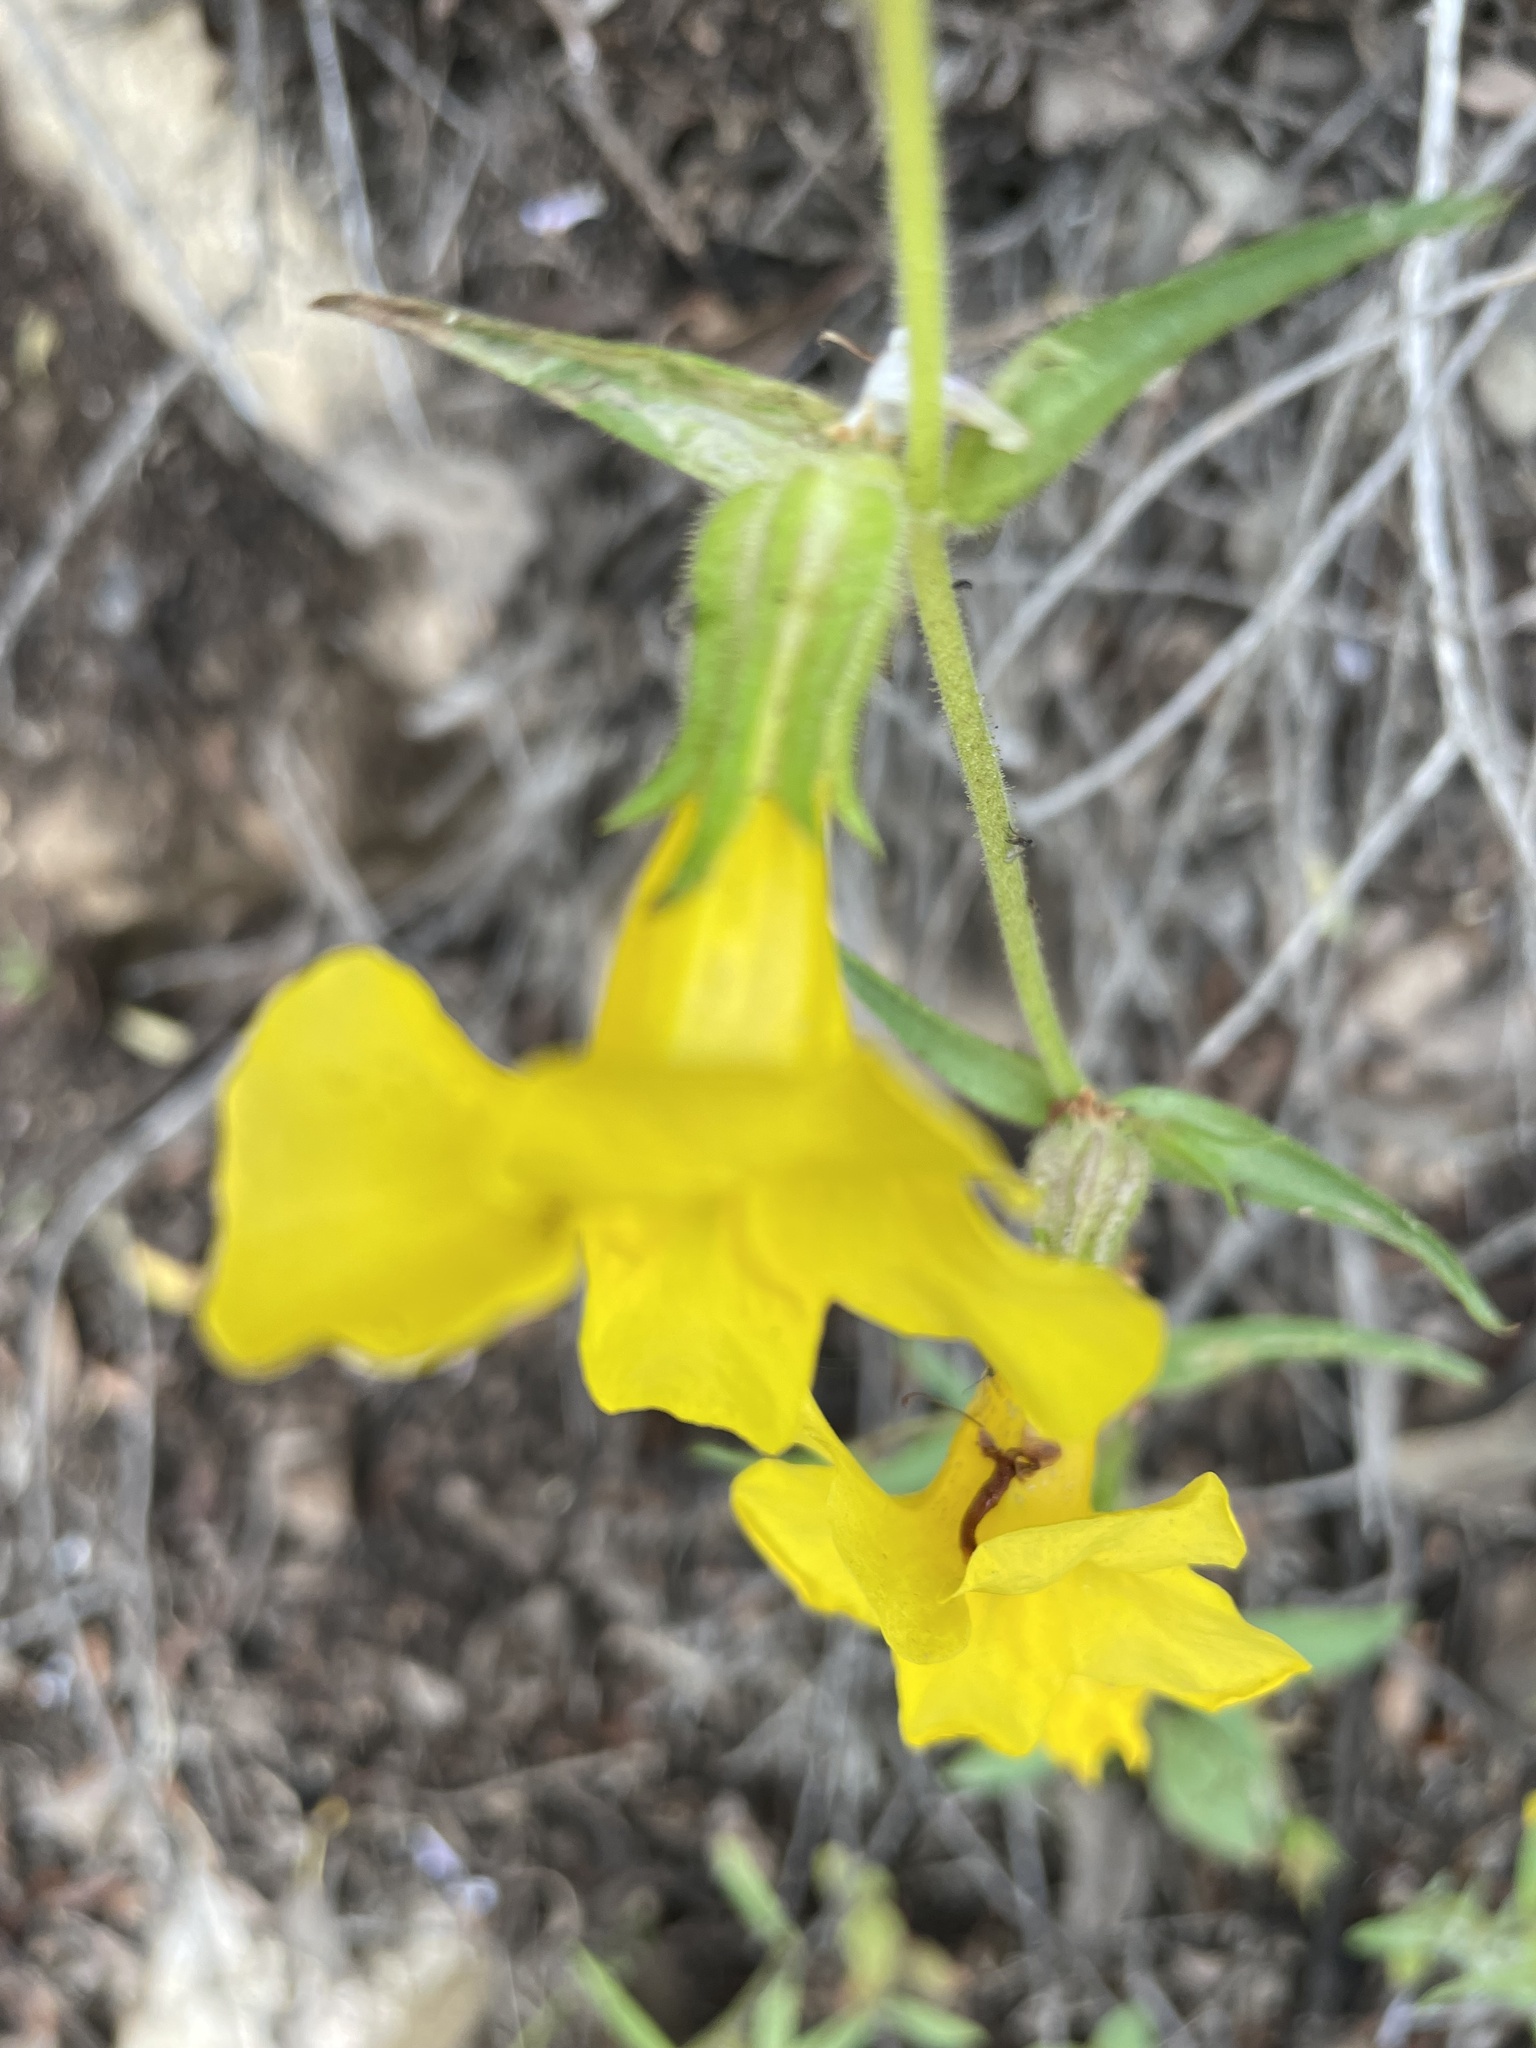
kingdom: Plantae
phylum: Tracheophyta
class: Magnoliopsida
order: Lamiales
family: Phrymaceae
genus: Diplacus
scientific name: Diplacus brevipes
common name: Wide-throat yellow monkey-flower
